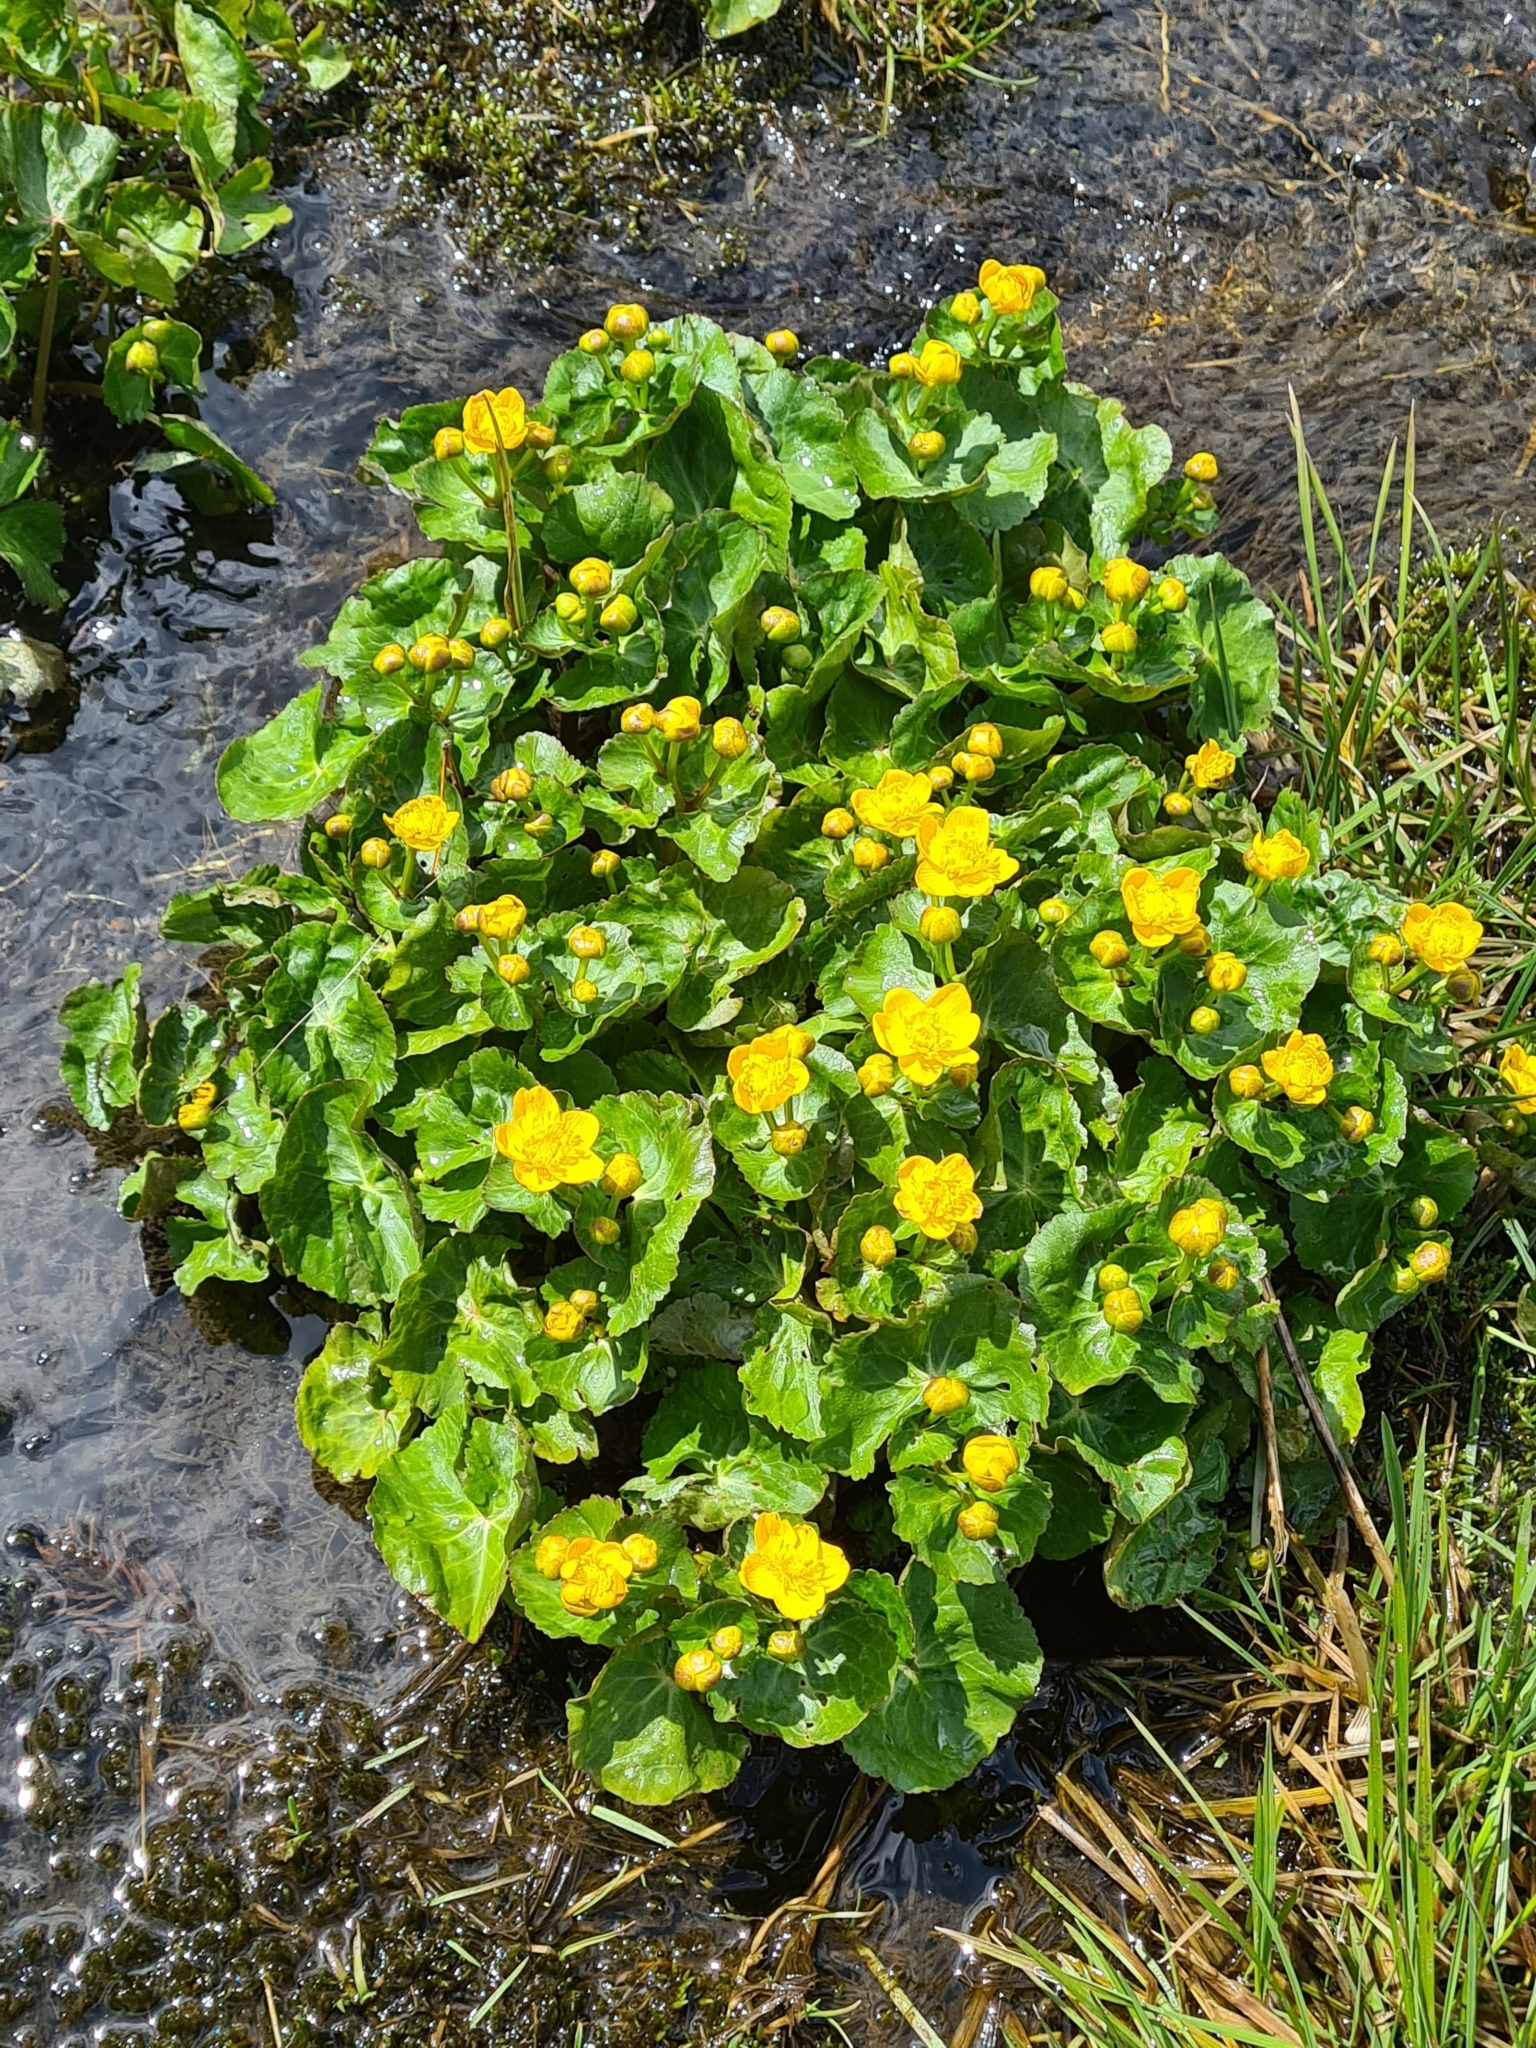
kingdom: Plantae
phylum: Tracheophyta
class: Magnoliopsida
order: Ranunculales
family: Ranunculaceae
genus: Caltha
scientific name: Caltha palustris
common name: Marsh marigold
